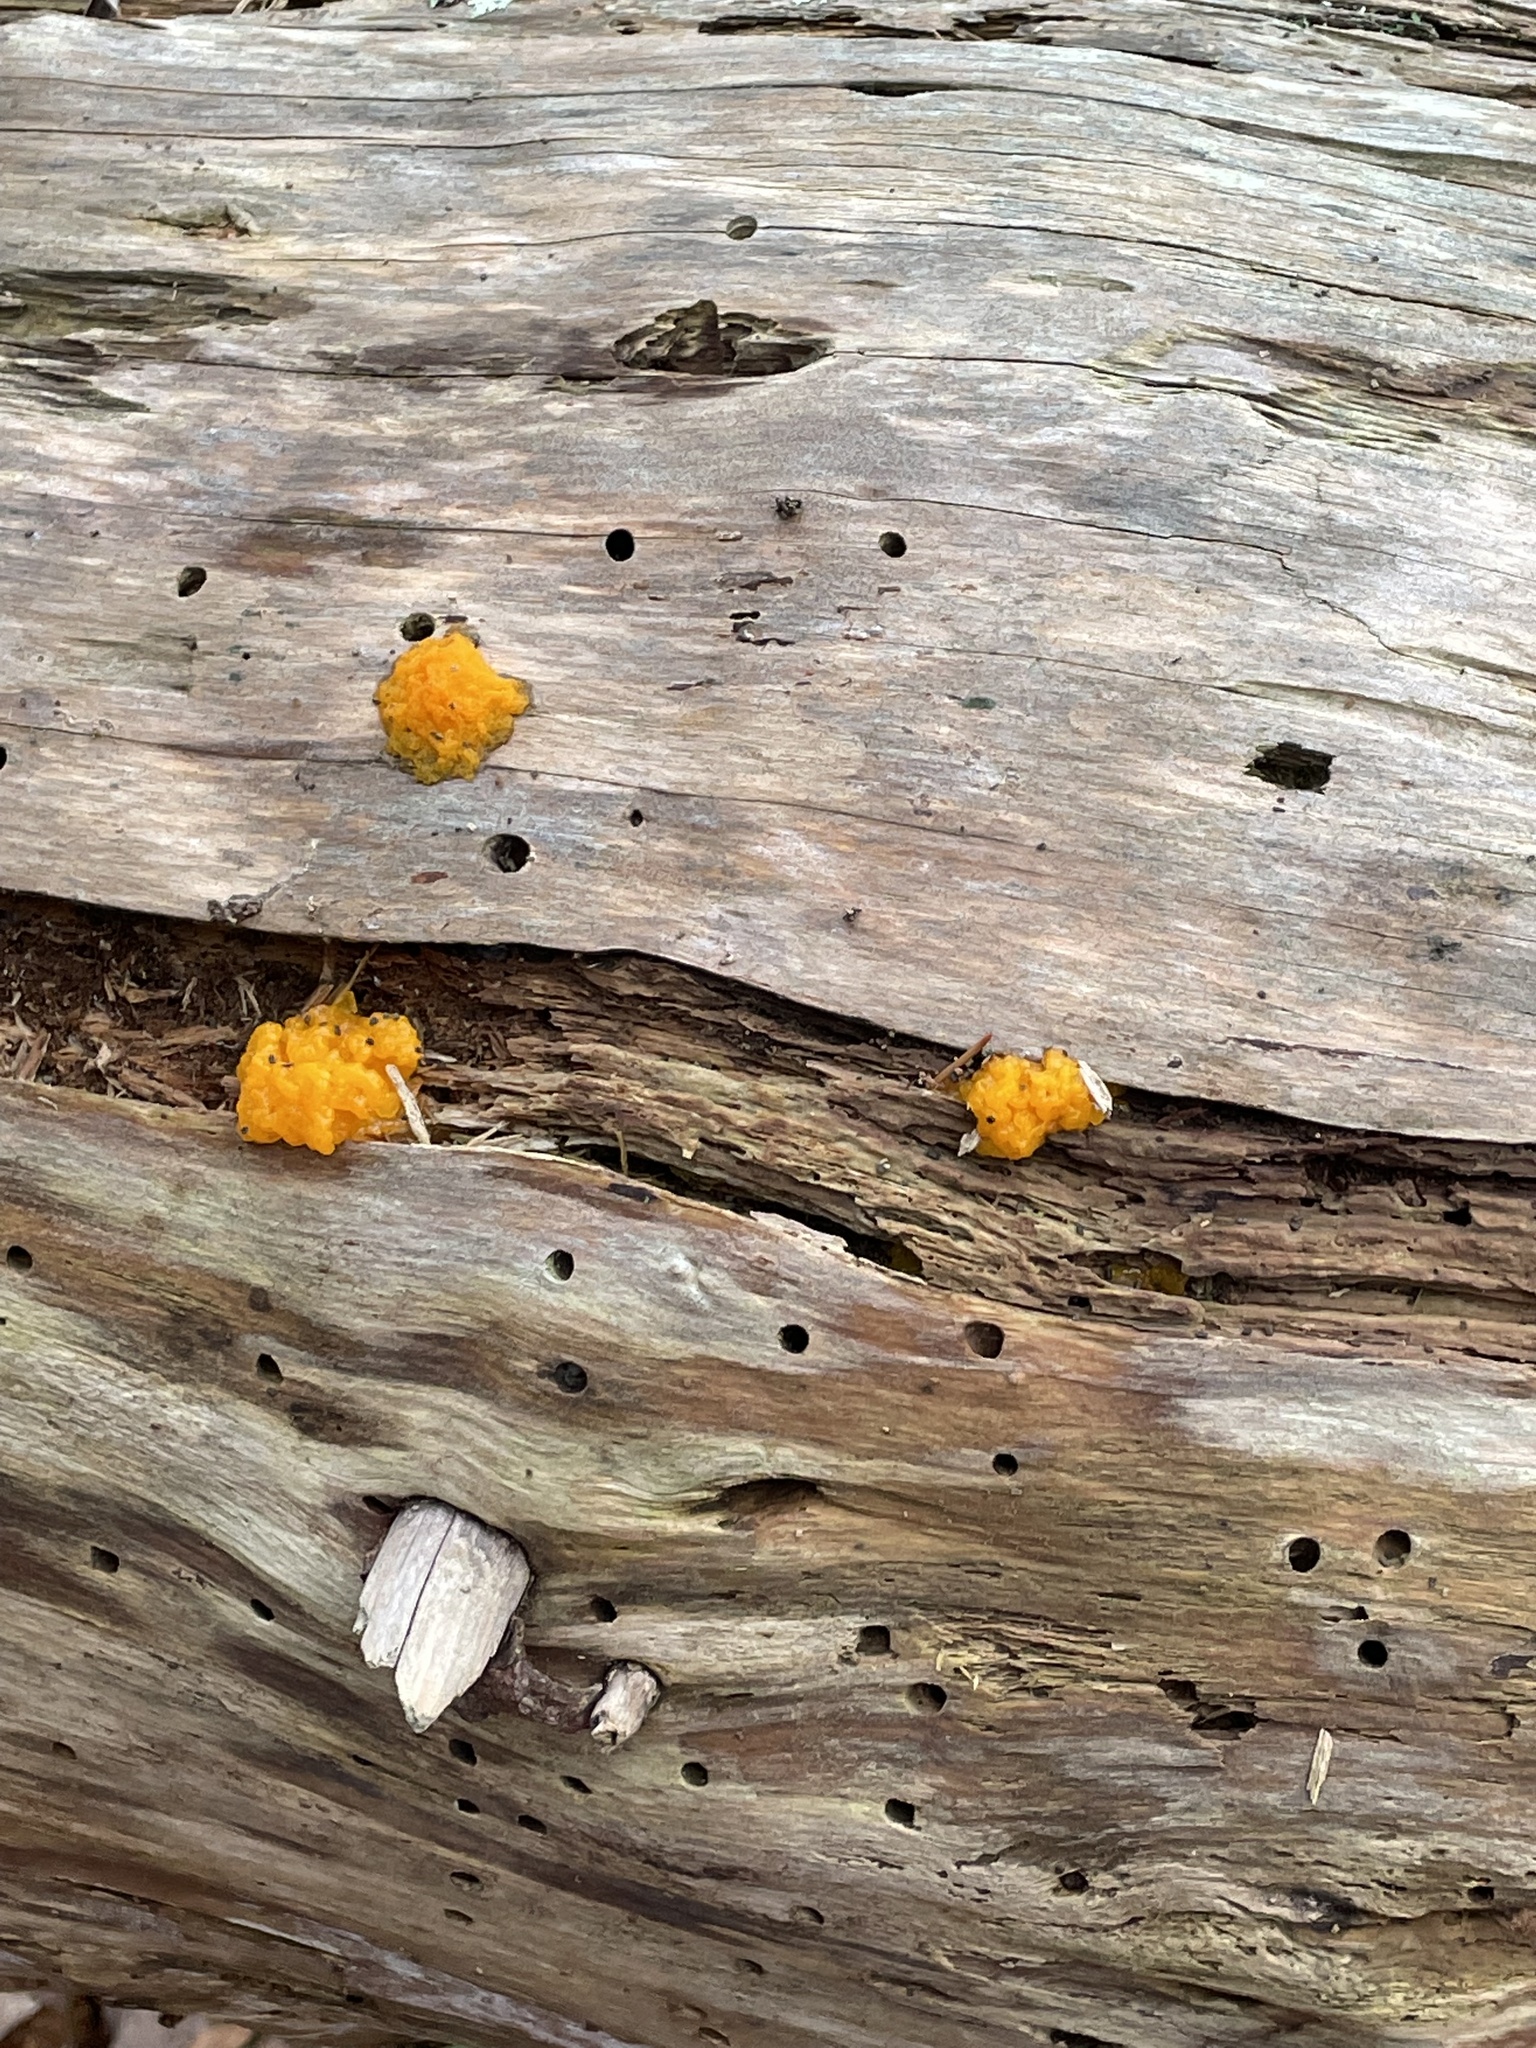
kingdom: Fungi
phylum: Basidiomycota
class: Dacrymycetes
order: Dacrymycetales
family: Dacrymycetaceae
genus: Dacrymyces
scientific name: Dacrymyces chrysospermus
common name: Orange jelly spot
